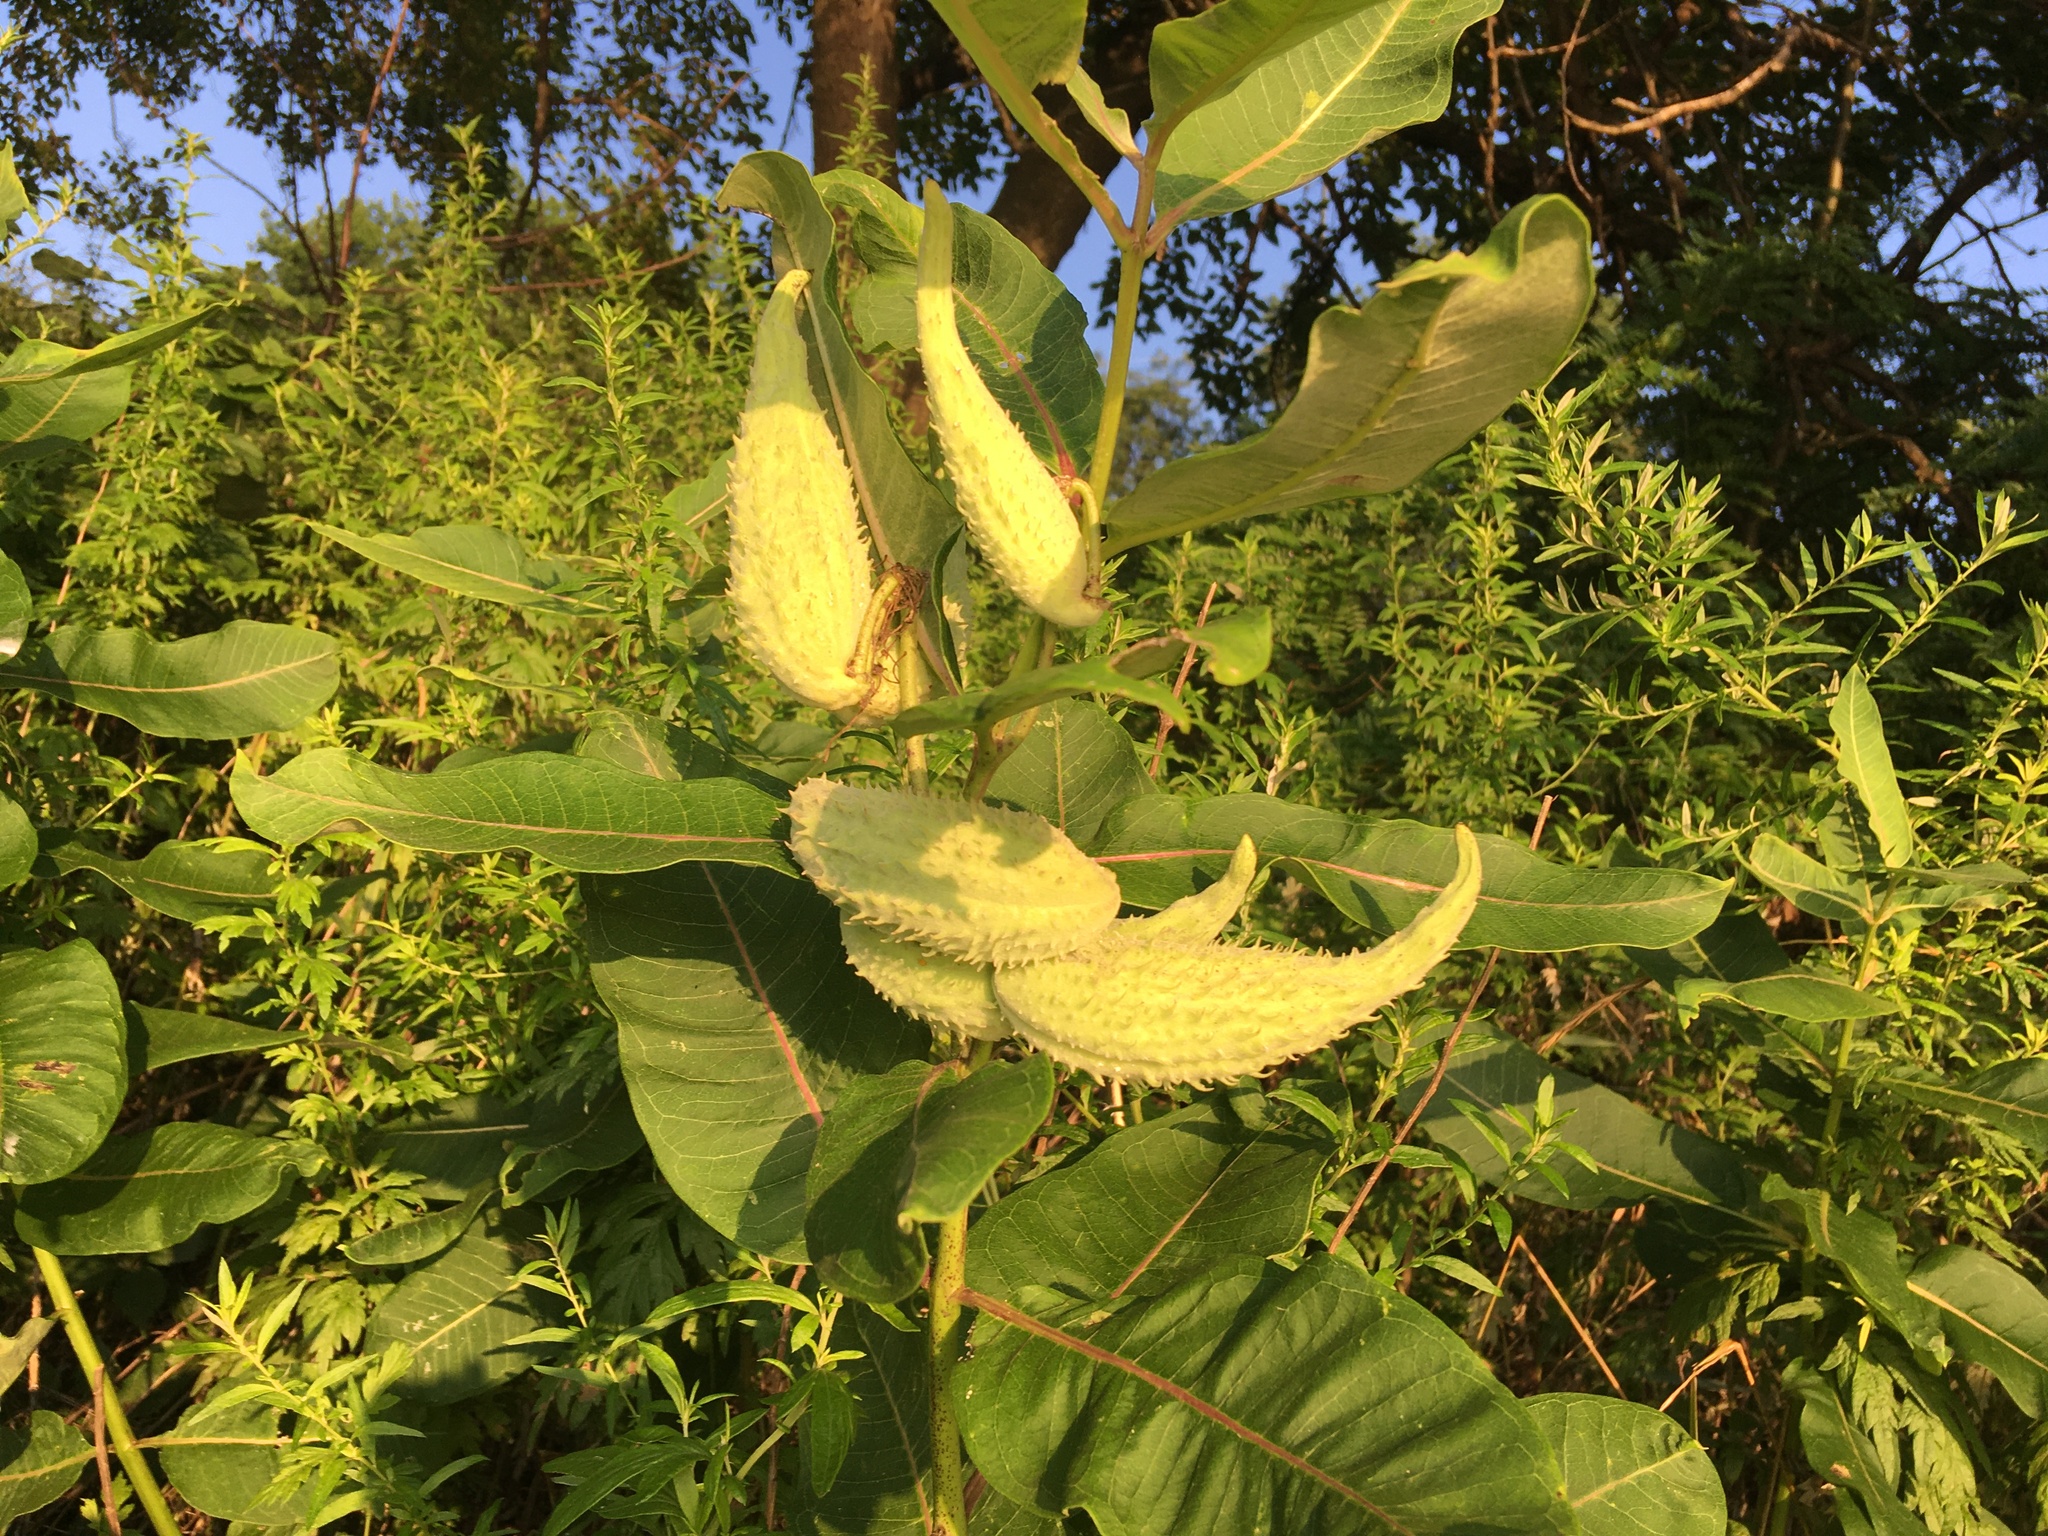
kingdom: Plantae
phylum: Tracheophyta
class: Magnoliopsida
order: Gentianales
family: Apocynaceae
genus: Asclepias
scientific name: Asclepias syriaca
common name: Common milkweed
